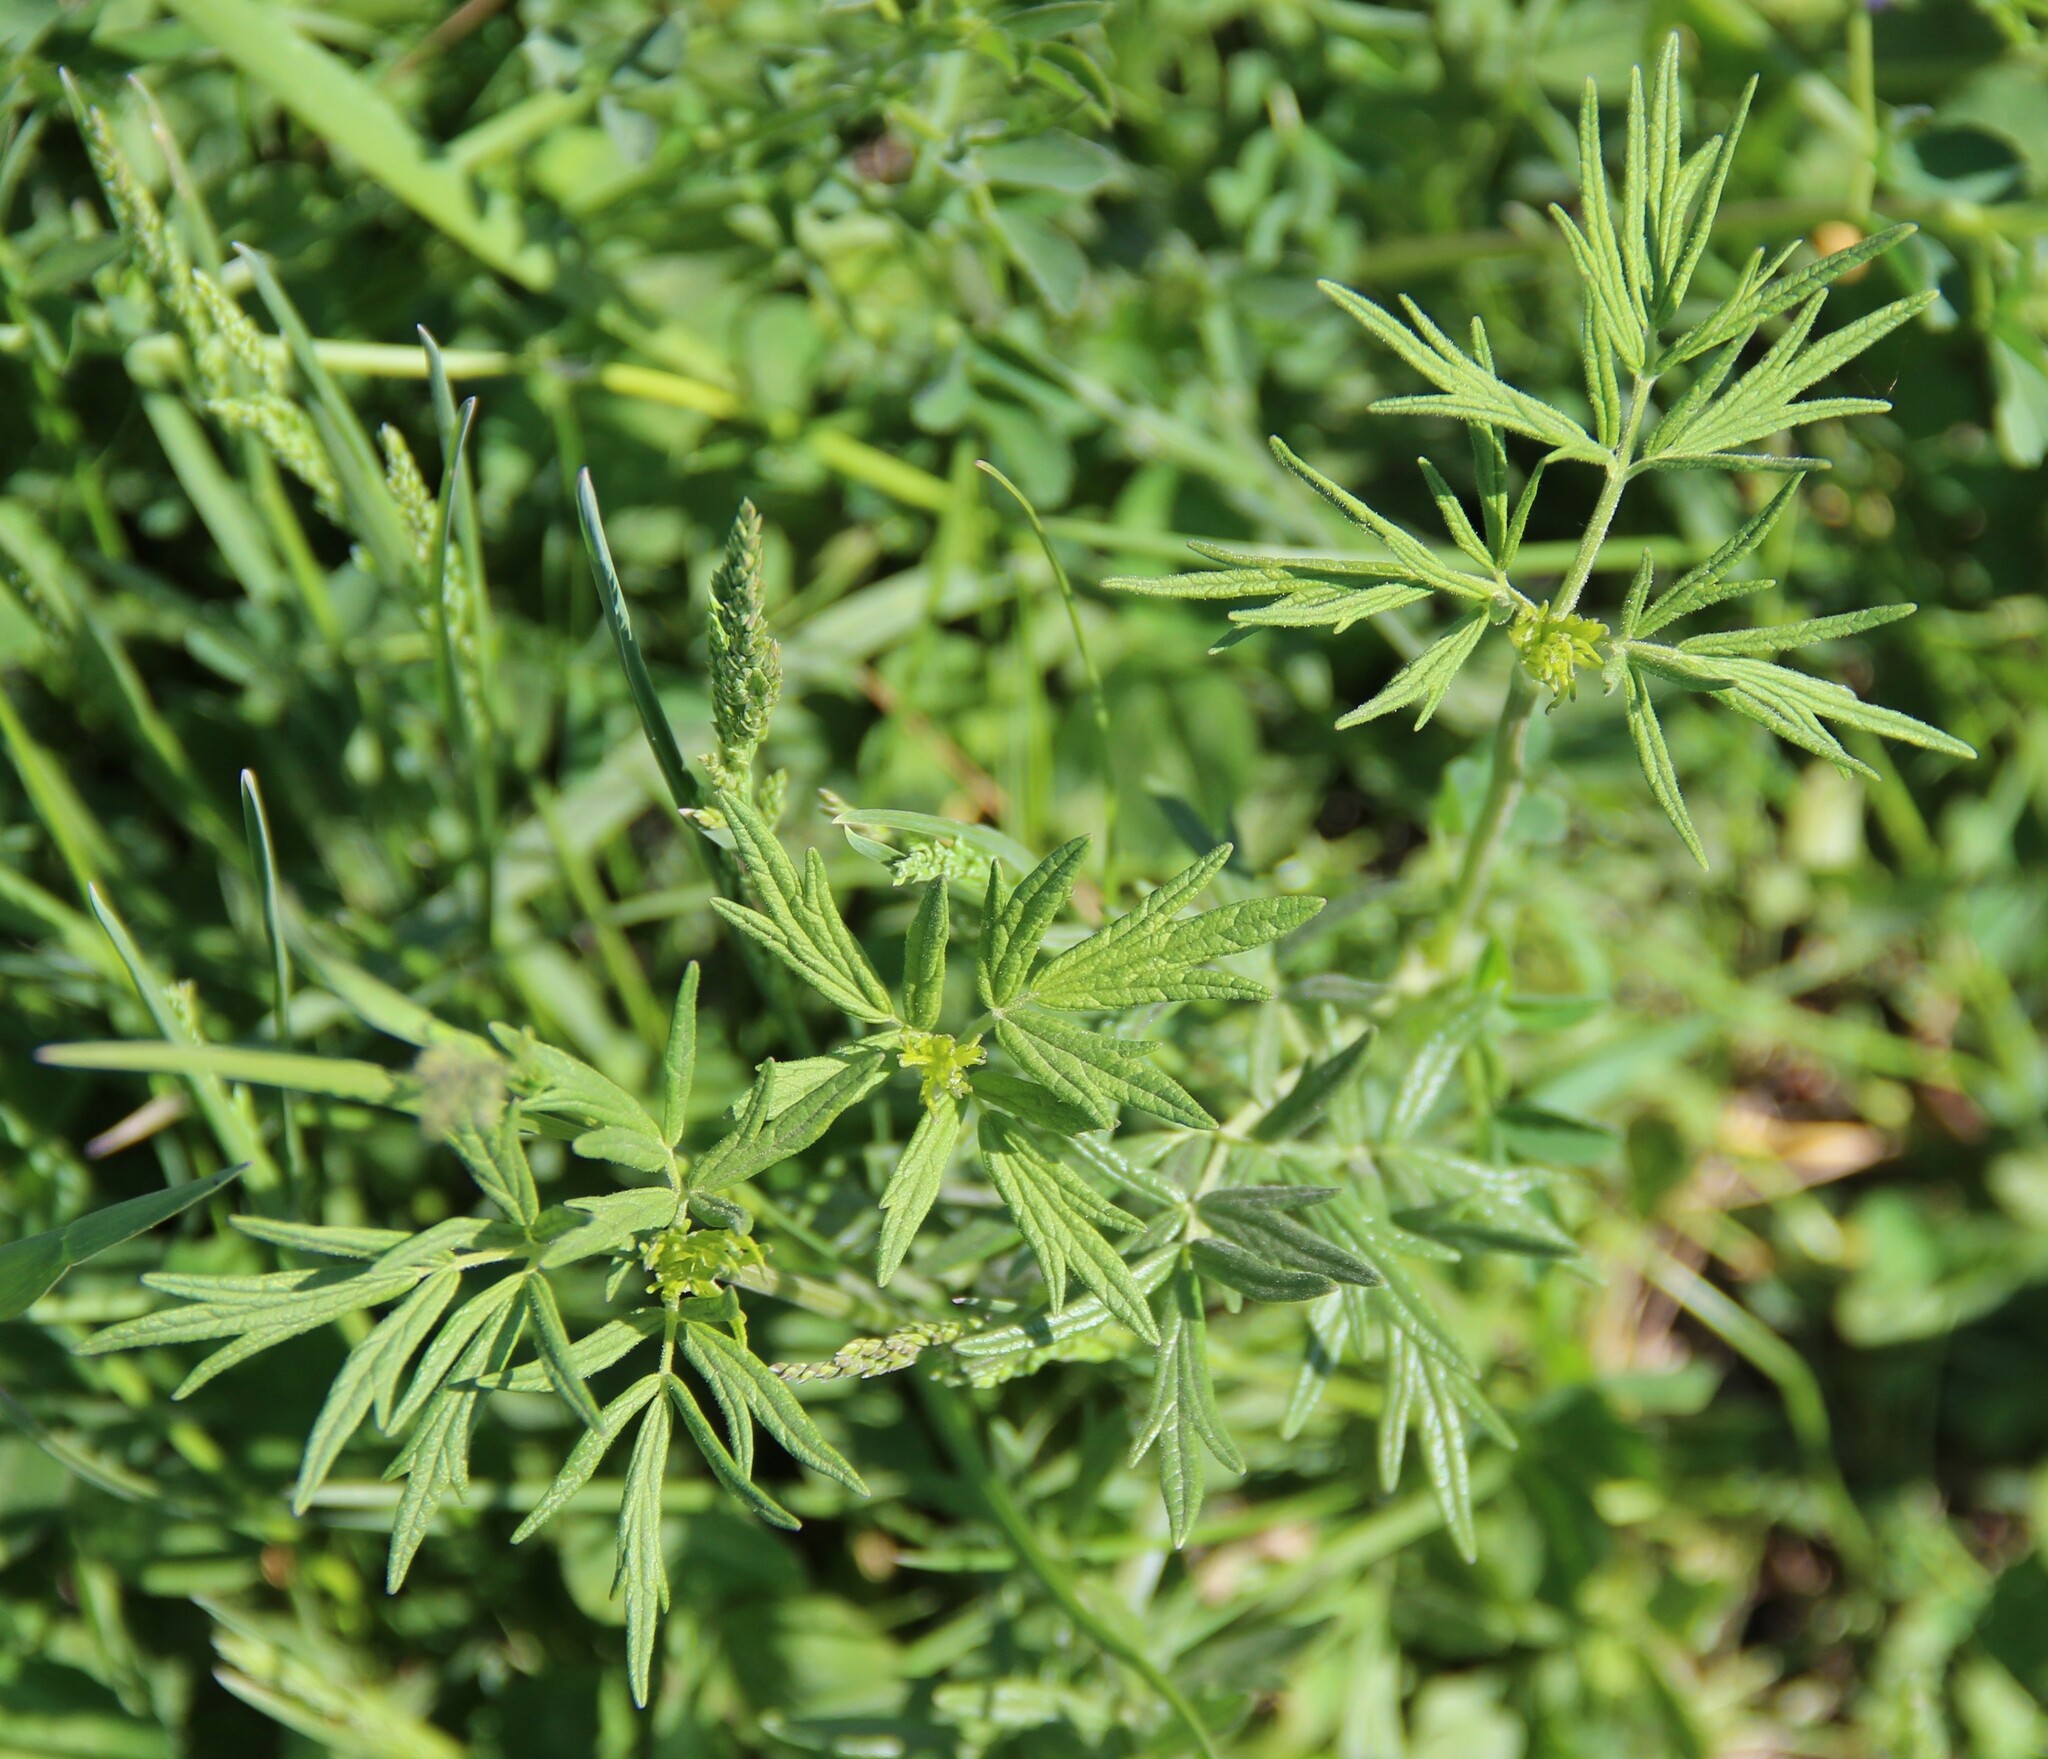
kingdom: Plantae
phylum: Tracheophyta
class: Magnoliopsida
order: Ranunculales
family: Ranunculaceae
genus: Thalictrum
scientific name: Thalictrum lucidum
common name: Shining meadow-rue
